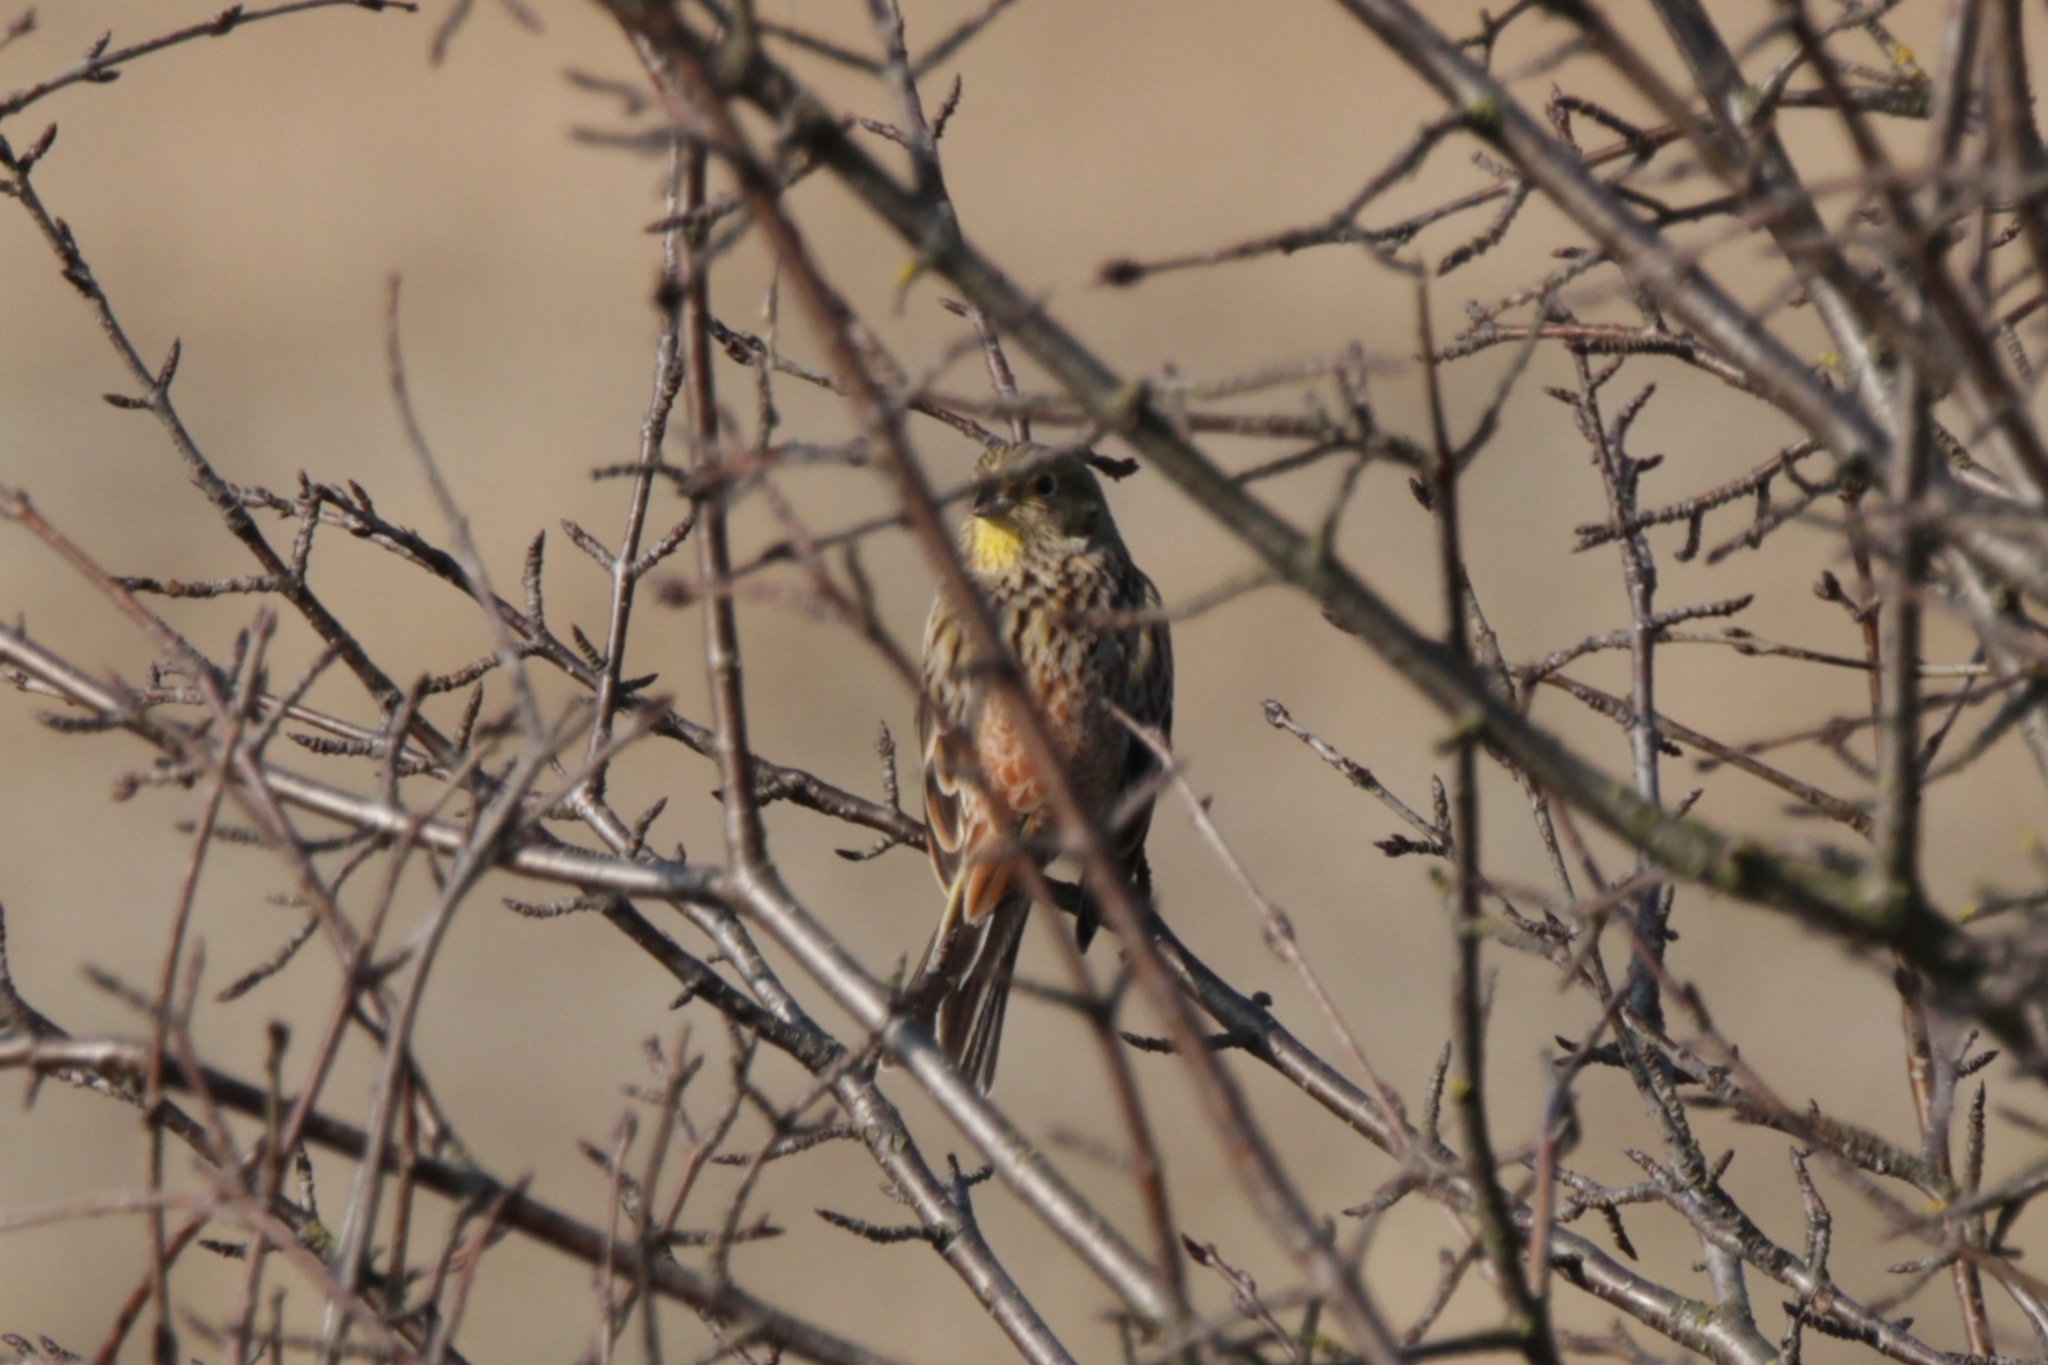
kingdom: Animalia
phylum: Chordata
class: Aves
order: Passeriformes
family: Emberizidae
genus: Emberiza
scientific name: Emberiza citrinella
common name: Yellowhammer
